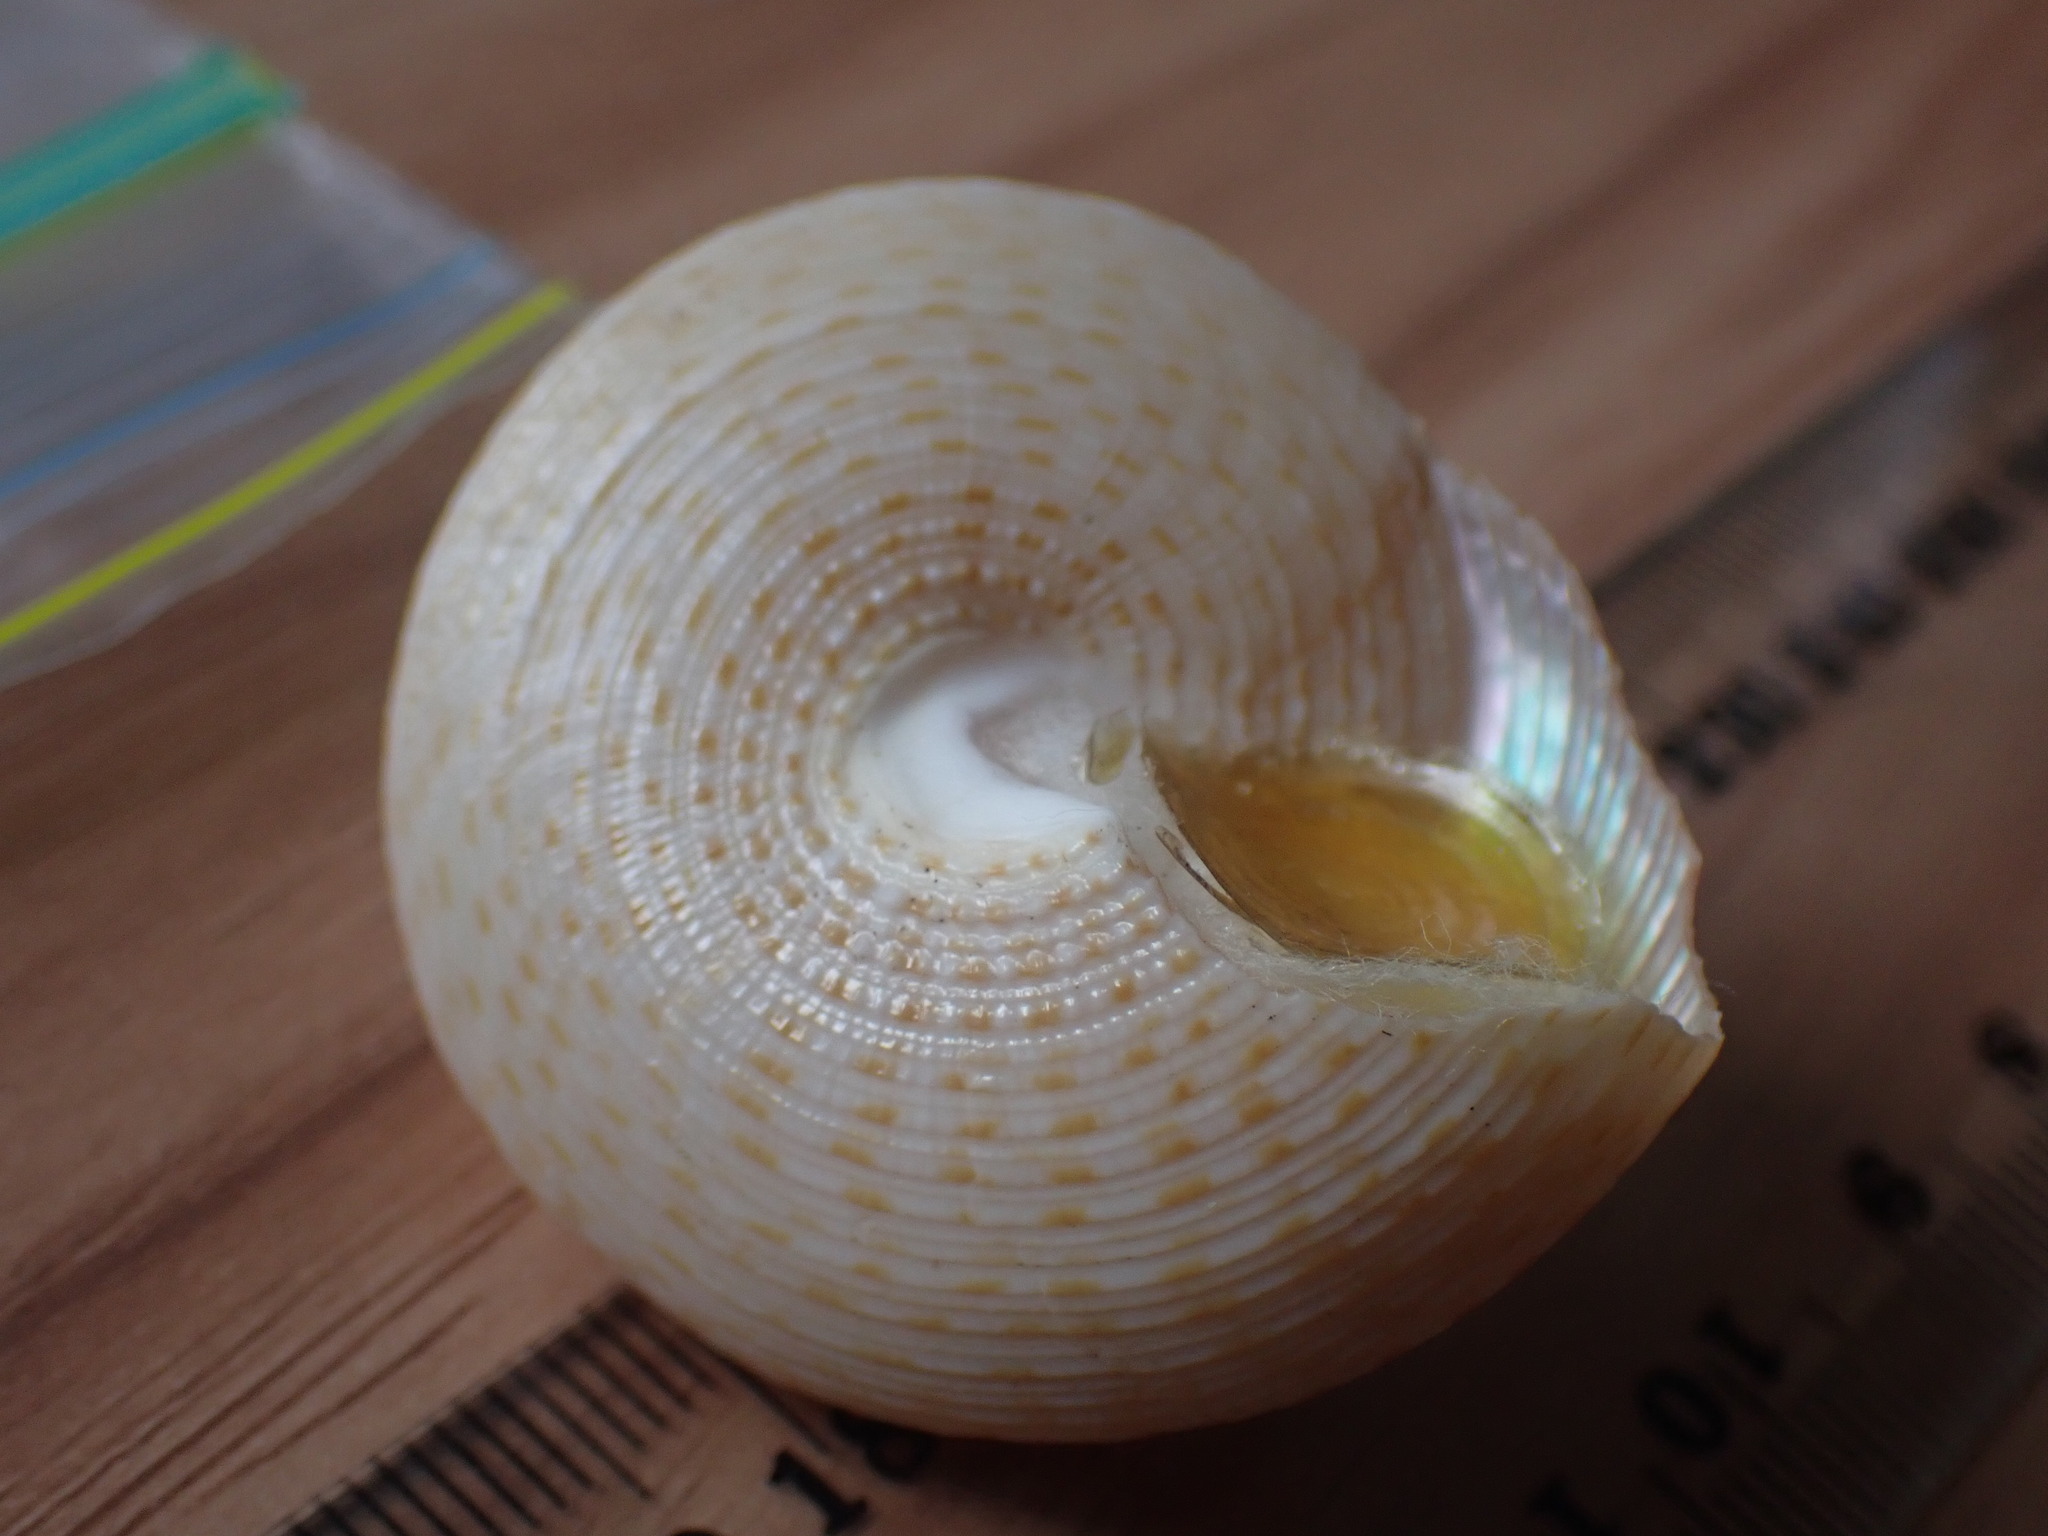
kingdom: Animalia
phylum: Mollusca
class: Gastropoda
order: Trochida
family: Calliostomatidae
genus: Maurea
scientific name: Maurea selecta
